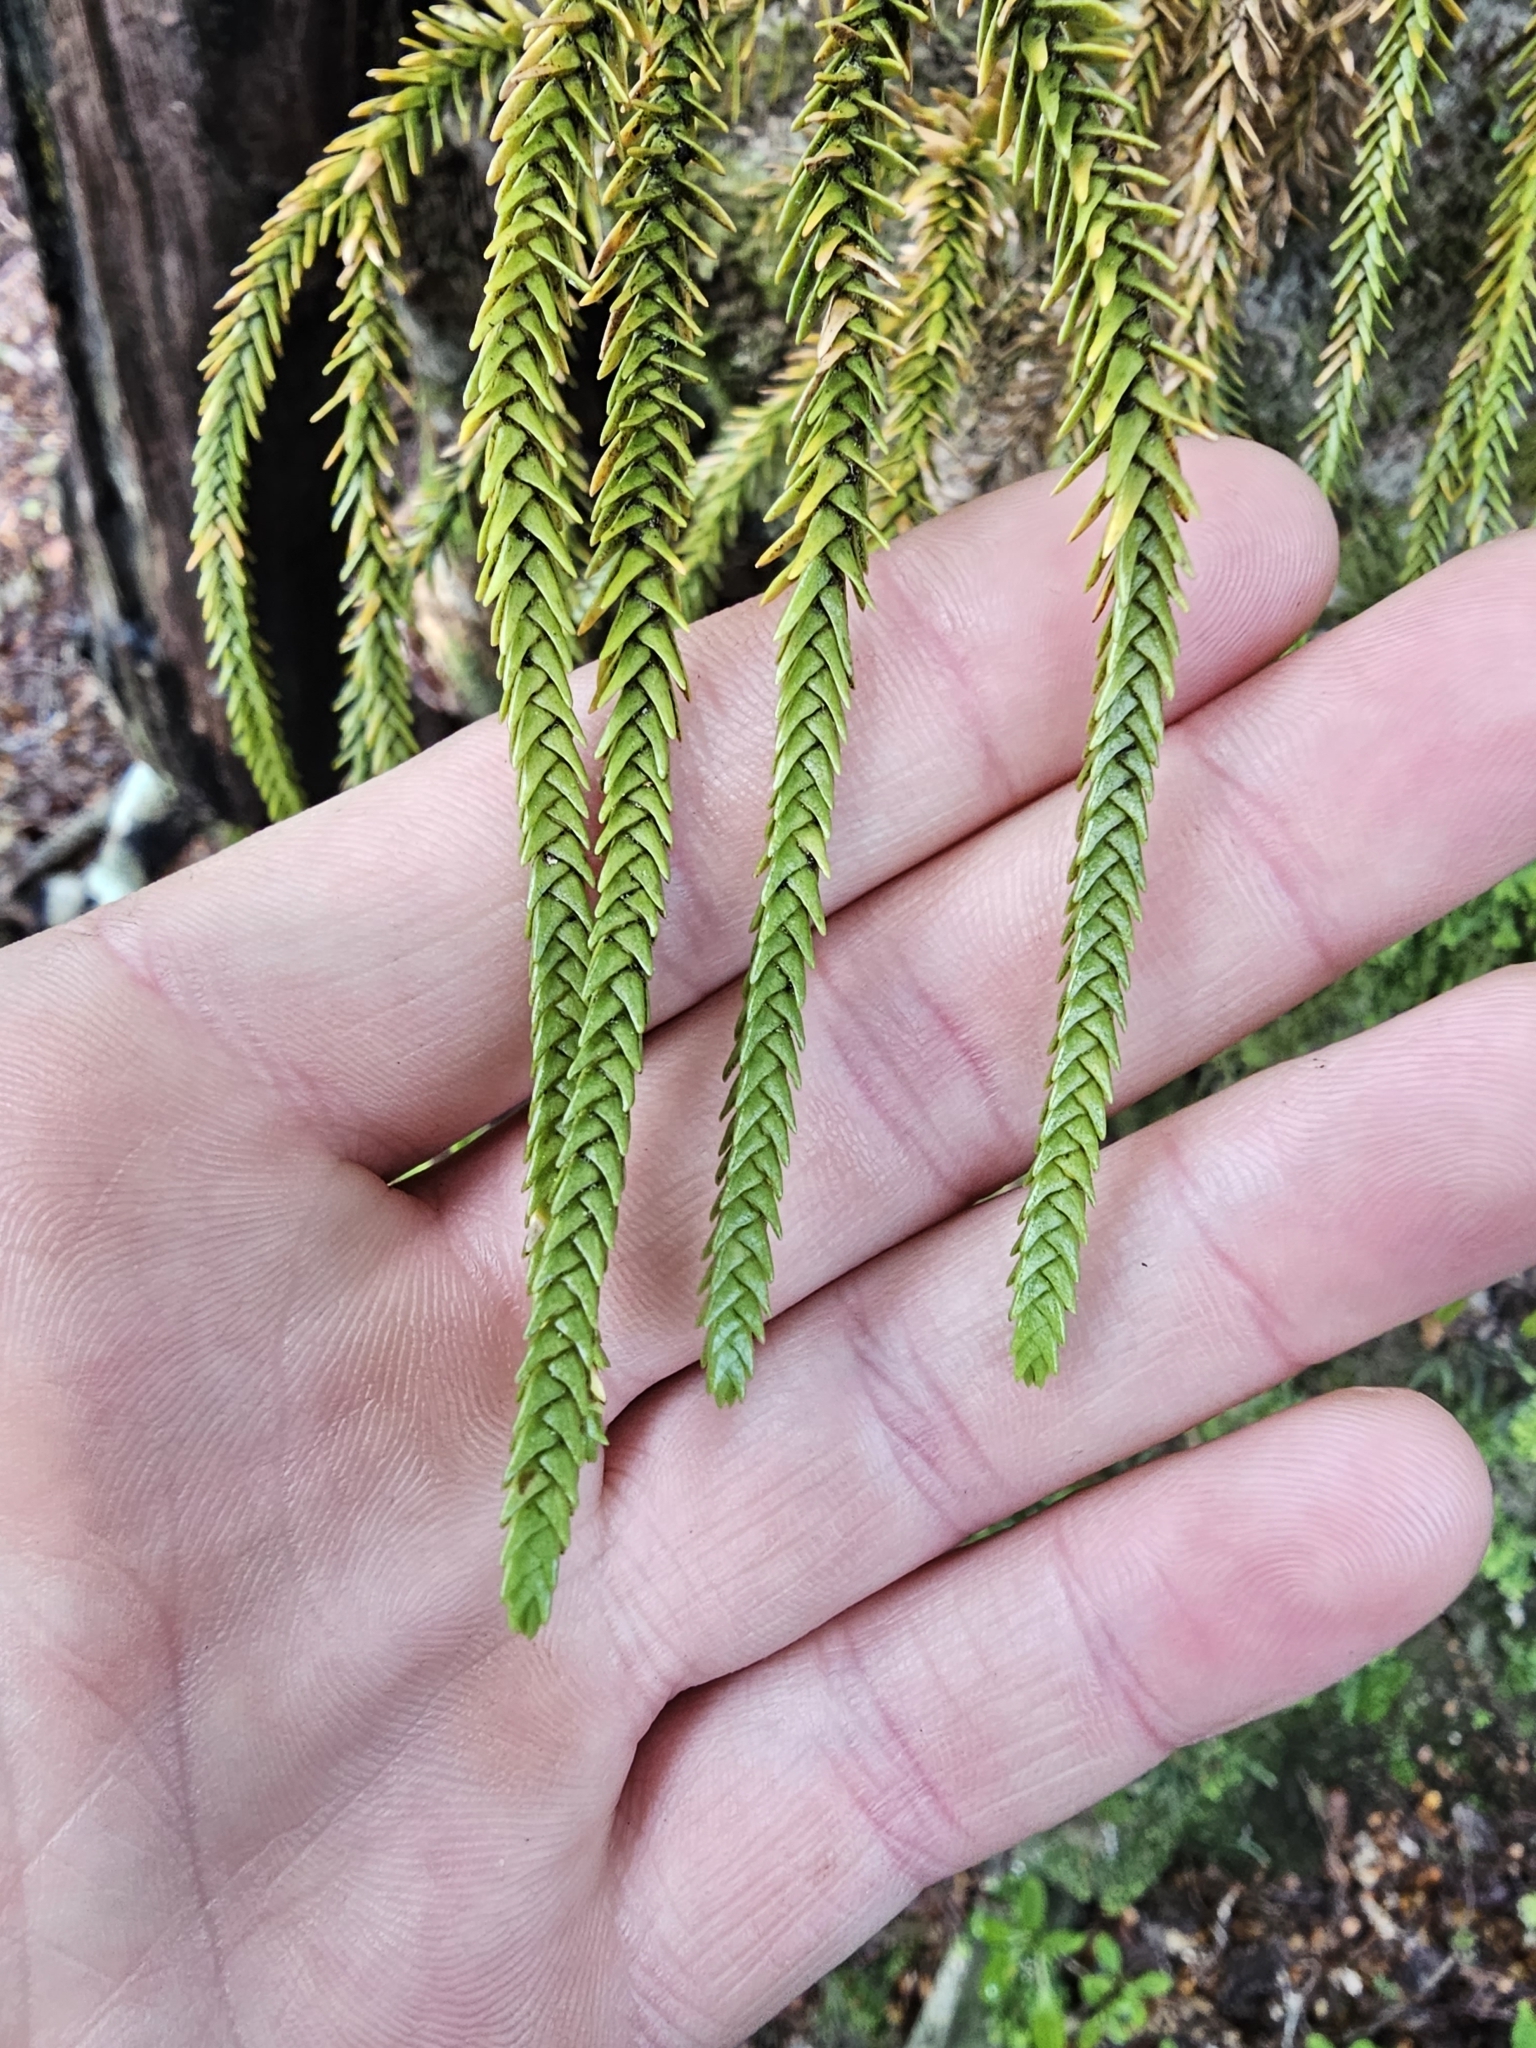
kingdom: Plantae
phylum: Tracheophyta
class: Lycopodiopsida
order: Lycopodiales
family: Lycopodiaceae
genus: Phlegmariurus
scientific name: Phlegmariurus varius
